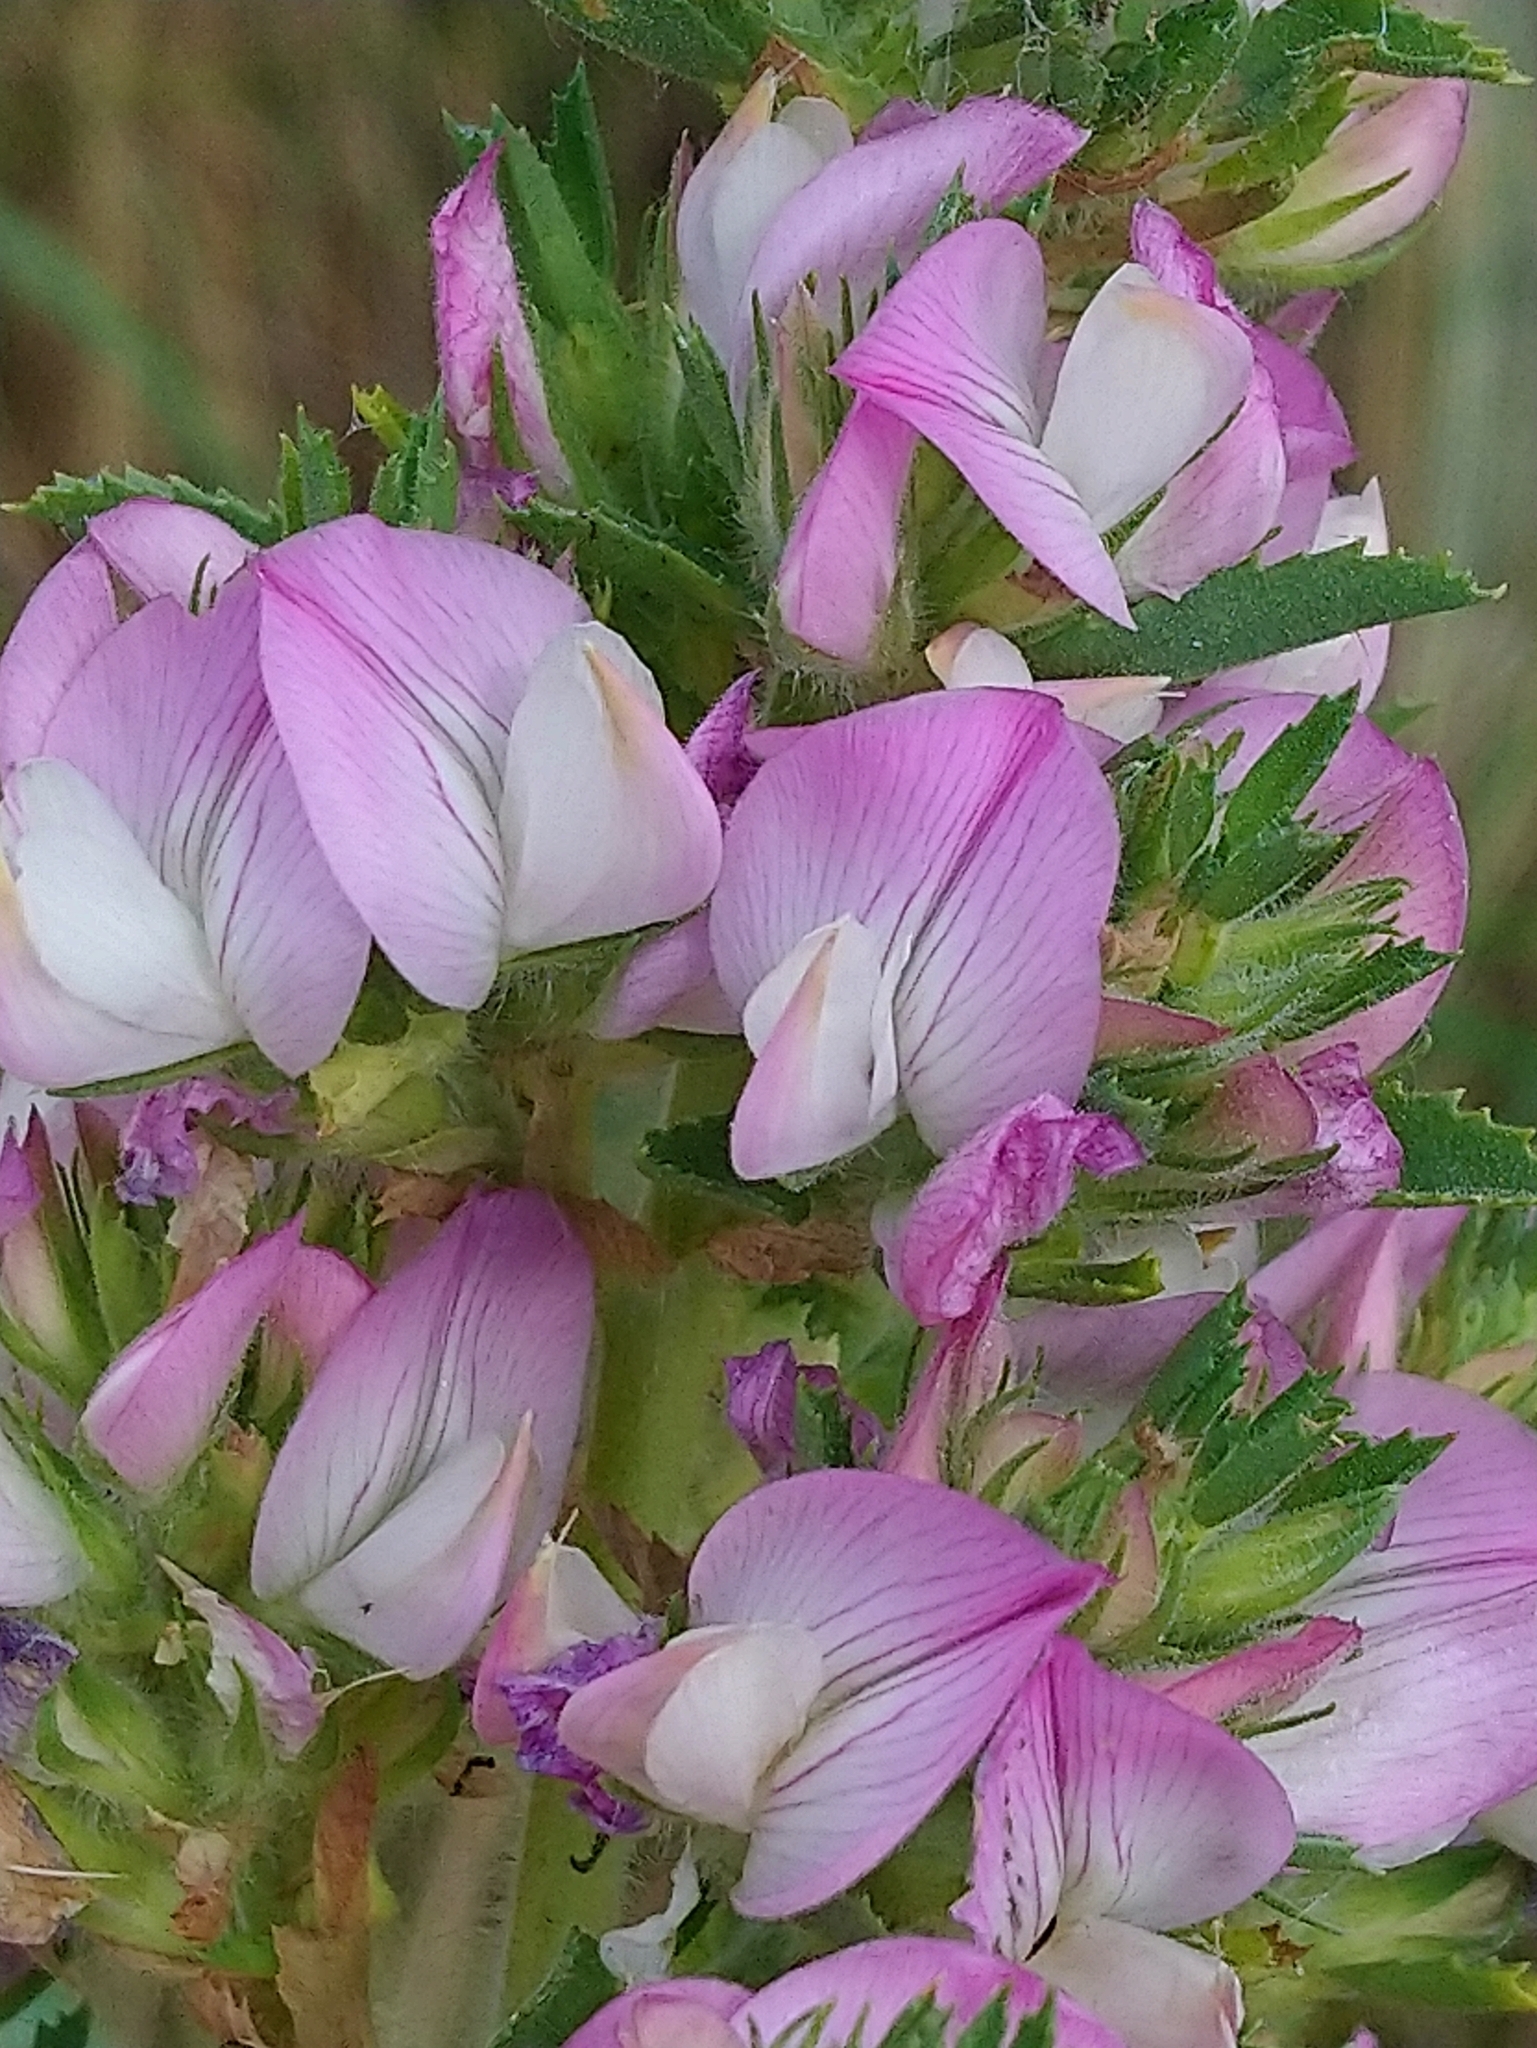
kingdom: Plantae
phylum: Tracheophyta
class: Magnoliopsida
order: Fabales
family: Fabaceae
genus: Ononis
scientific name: Ononis arvensis
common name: Field restharrow
